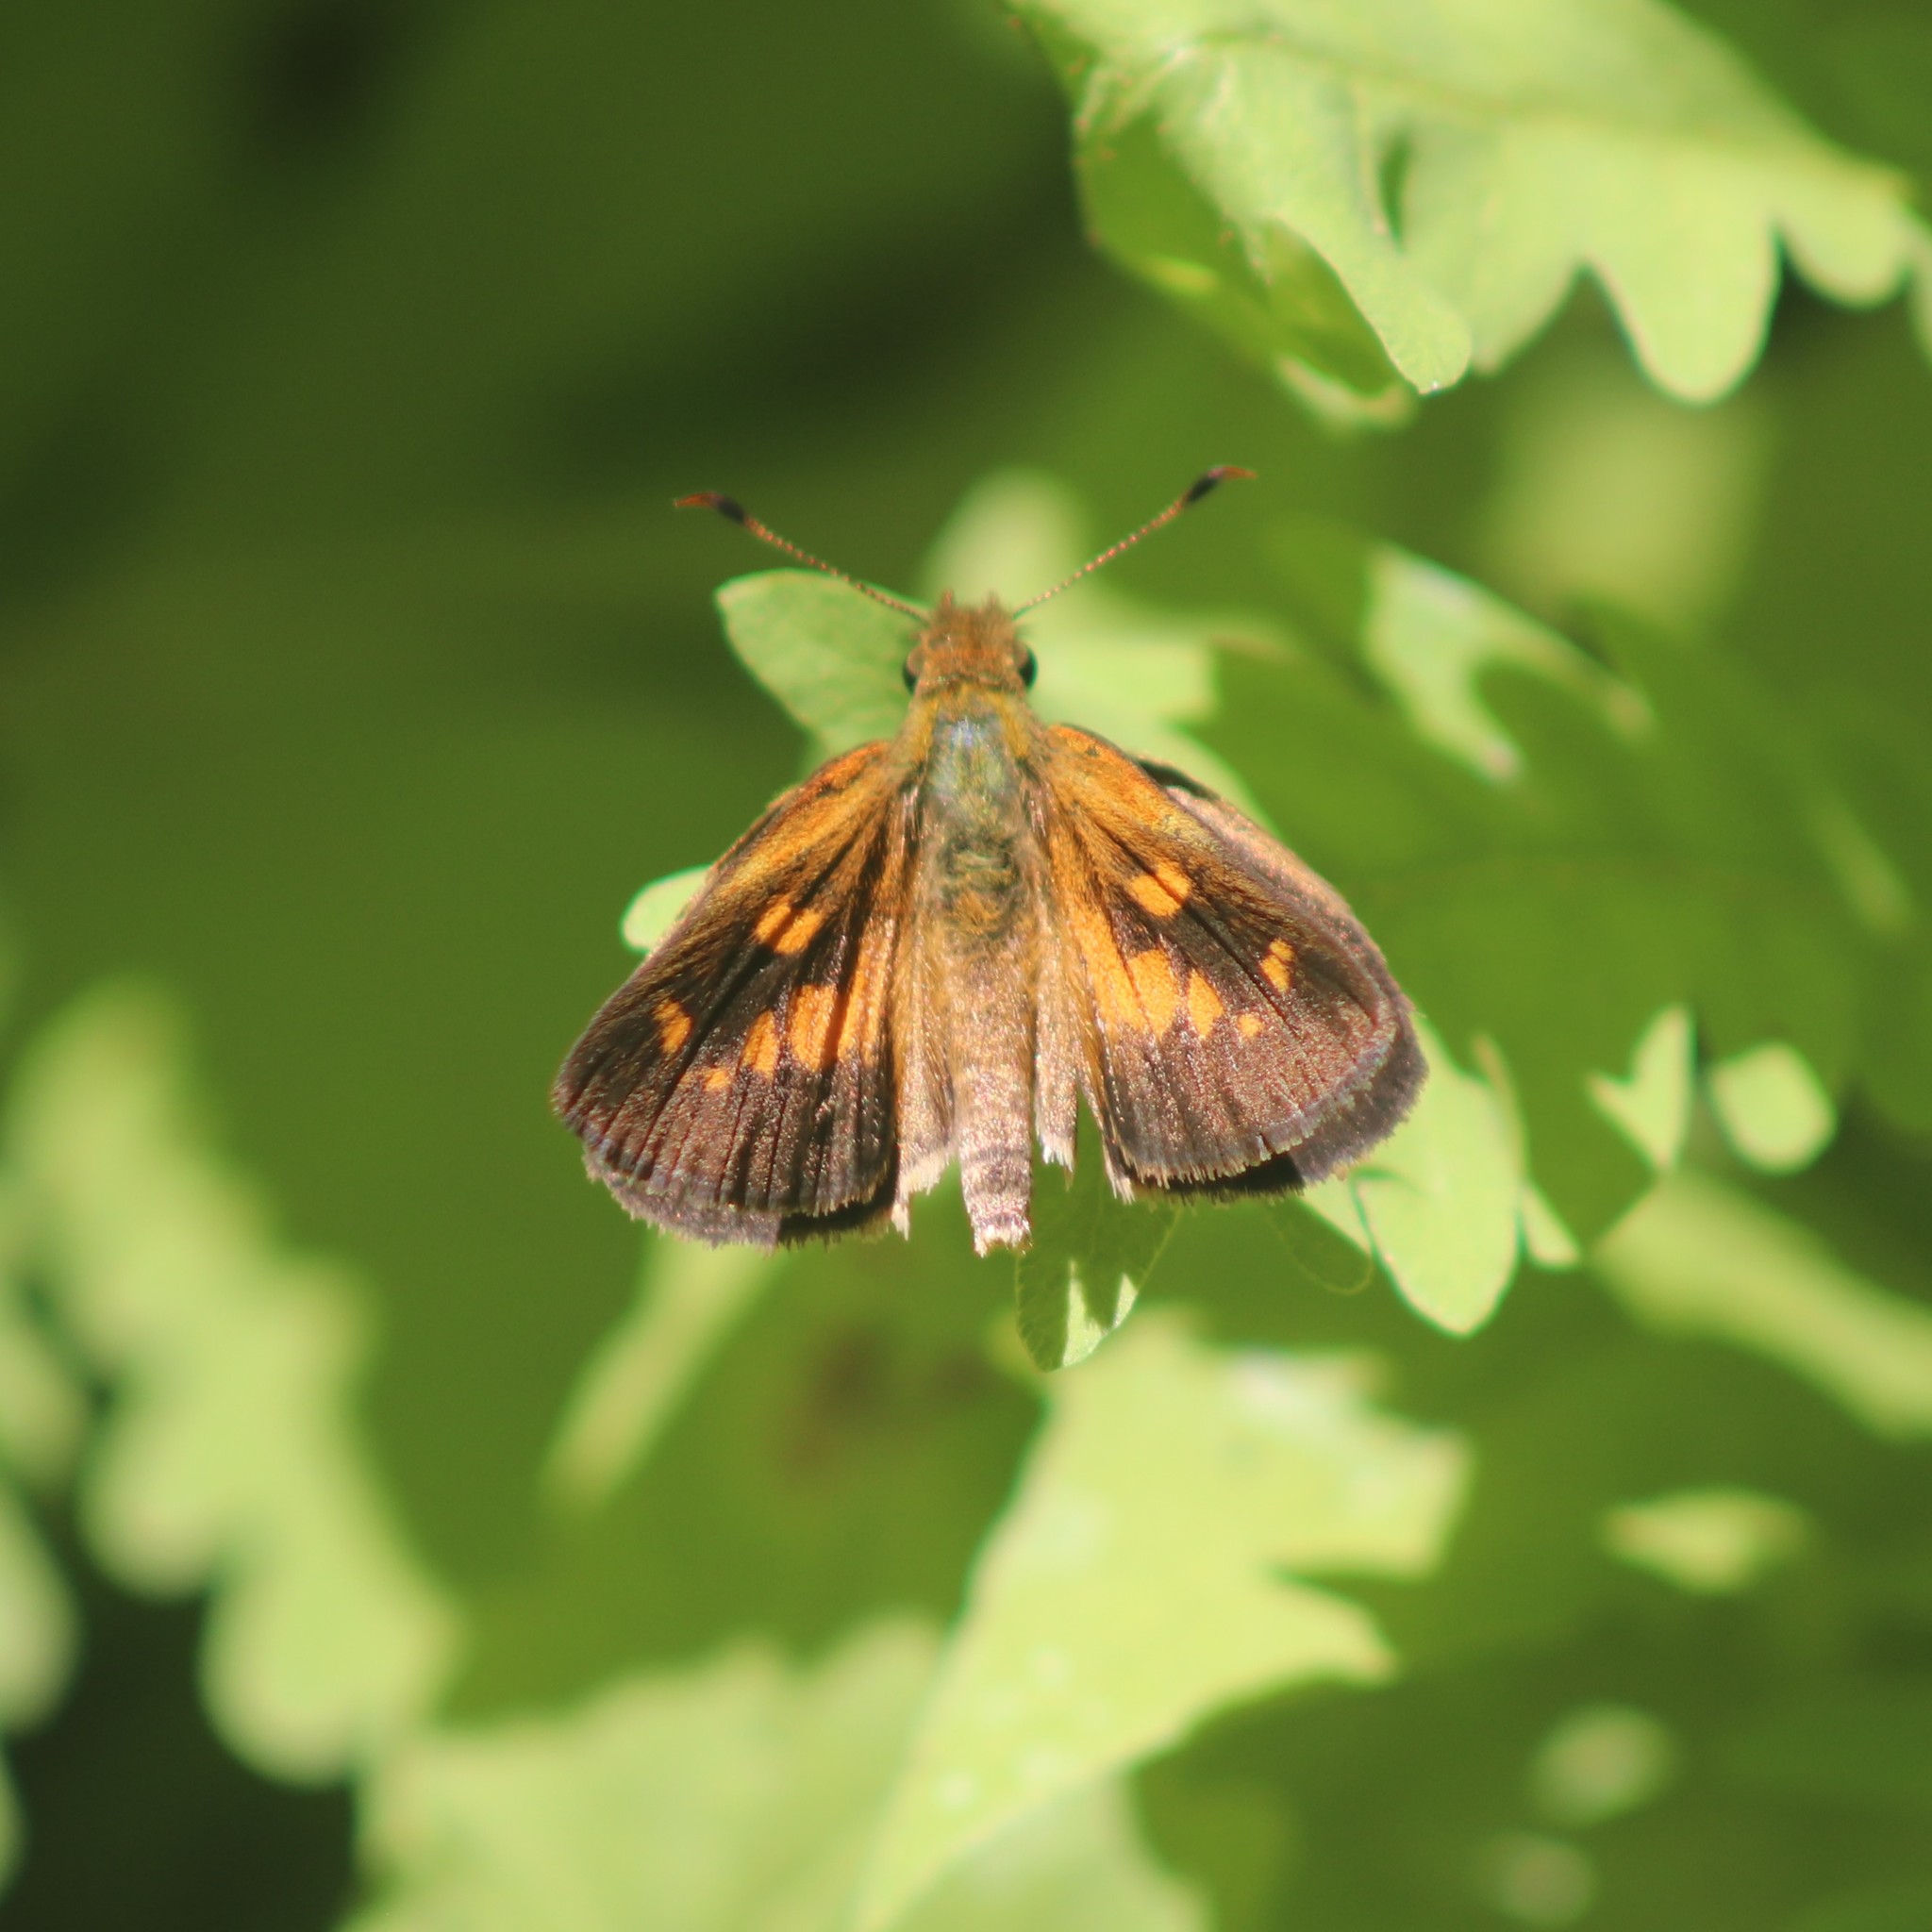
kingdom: Animalia
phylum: Arthropoda
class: Insecta
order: Lepidoptera
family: Hesperiidae
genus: Poanes
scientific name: Poanes viator
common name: Broad-winged skipper
